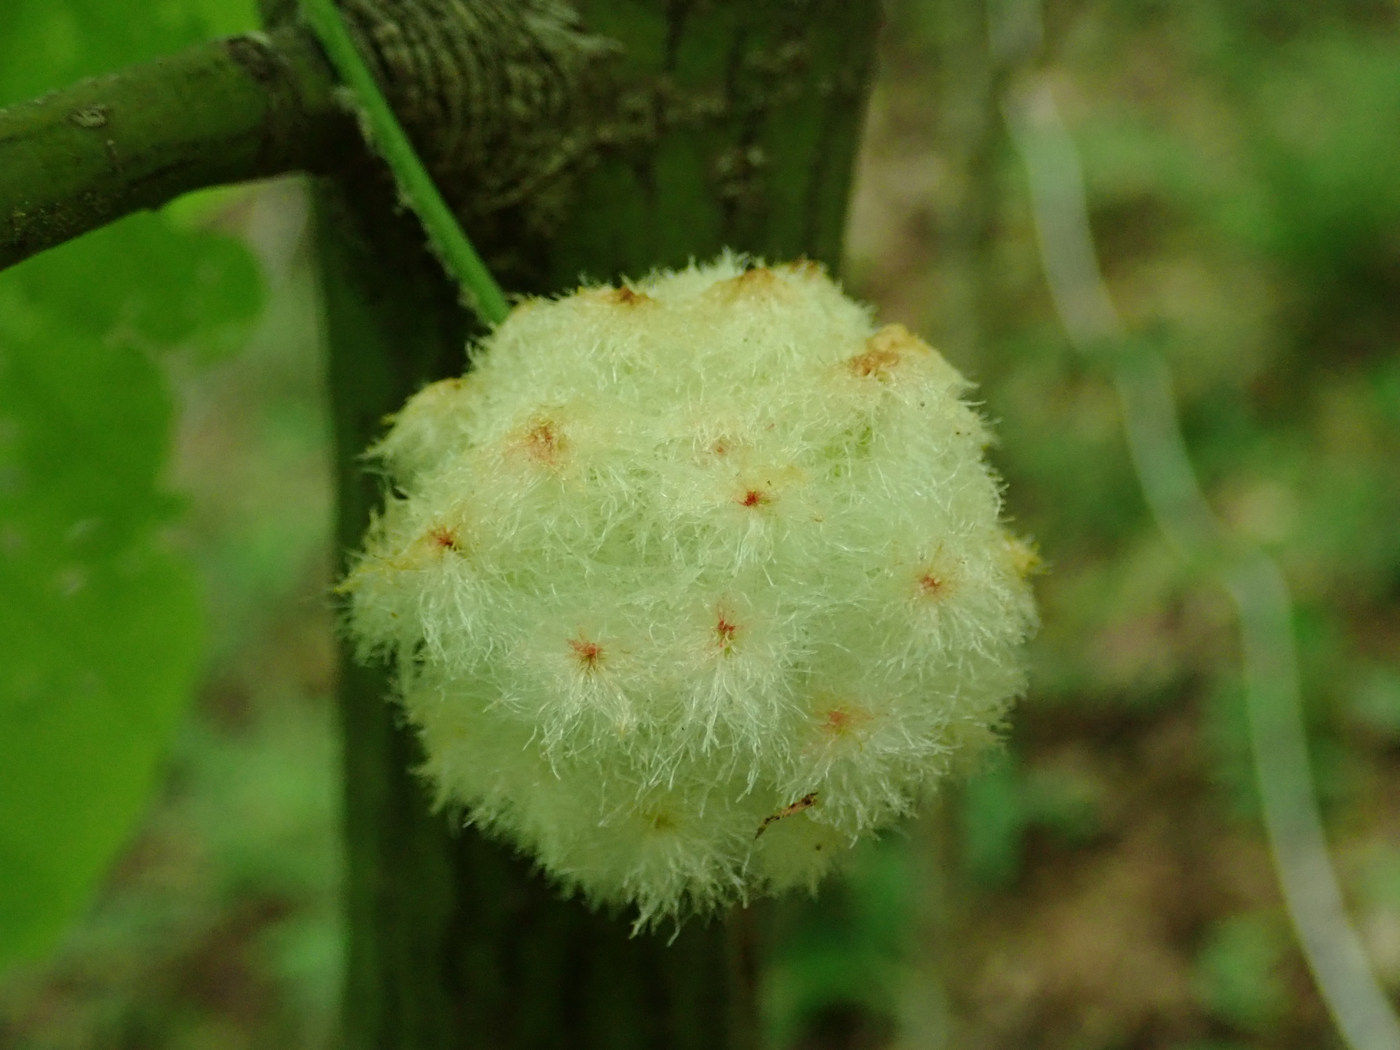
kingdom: Animalia
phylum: Arthropoda
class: Insecta
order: Hymenoptera
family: Cynipidae
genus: Callirhytis
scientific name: Callirhytis
